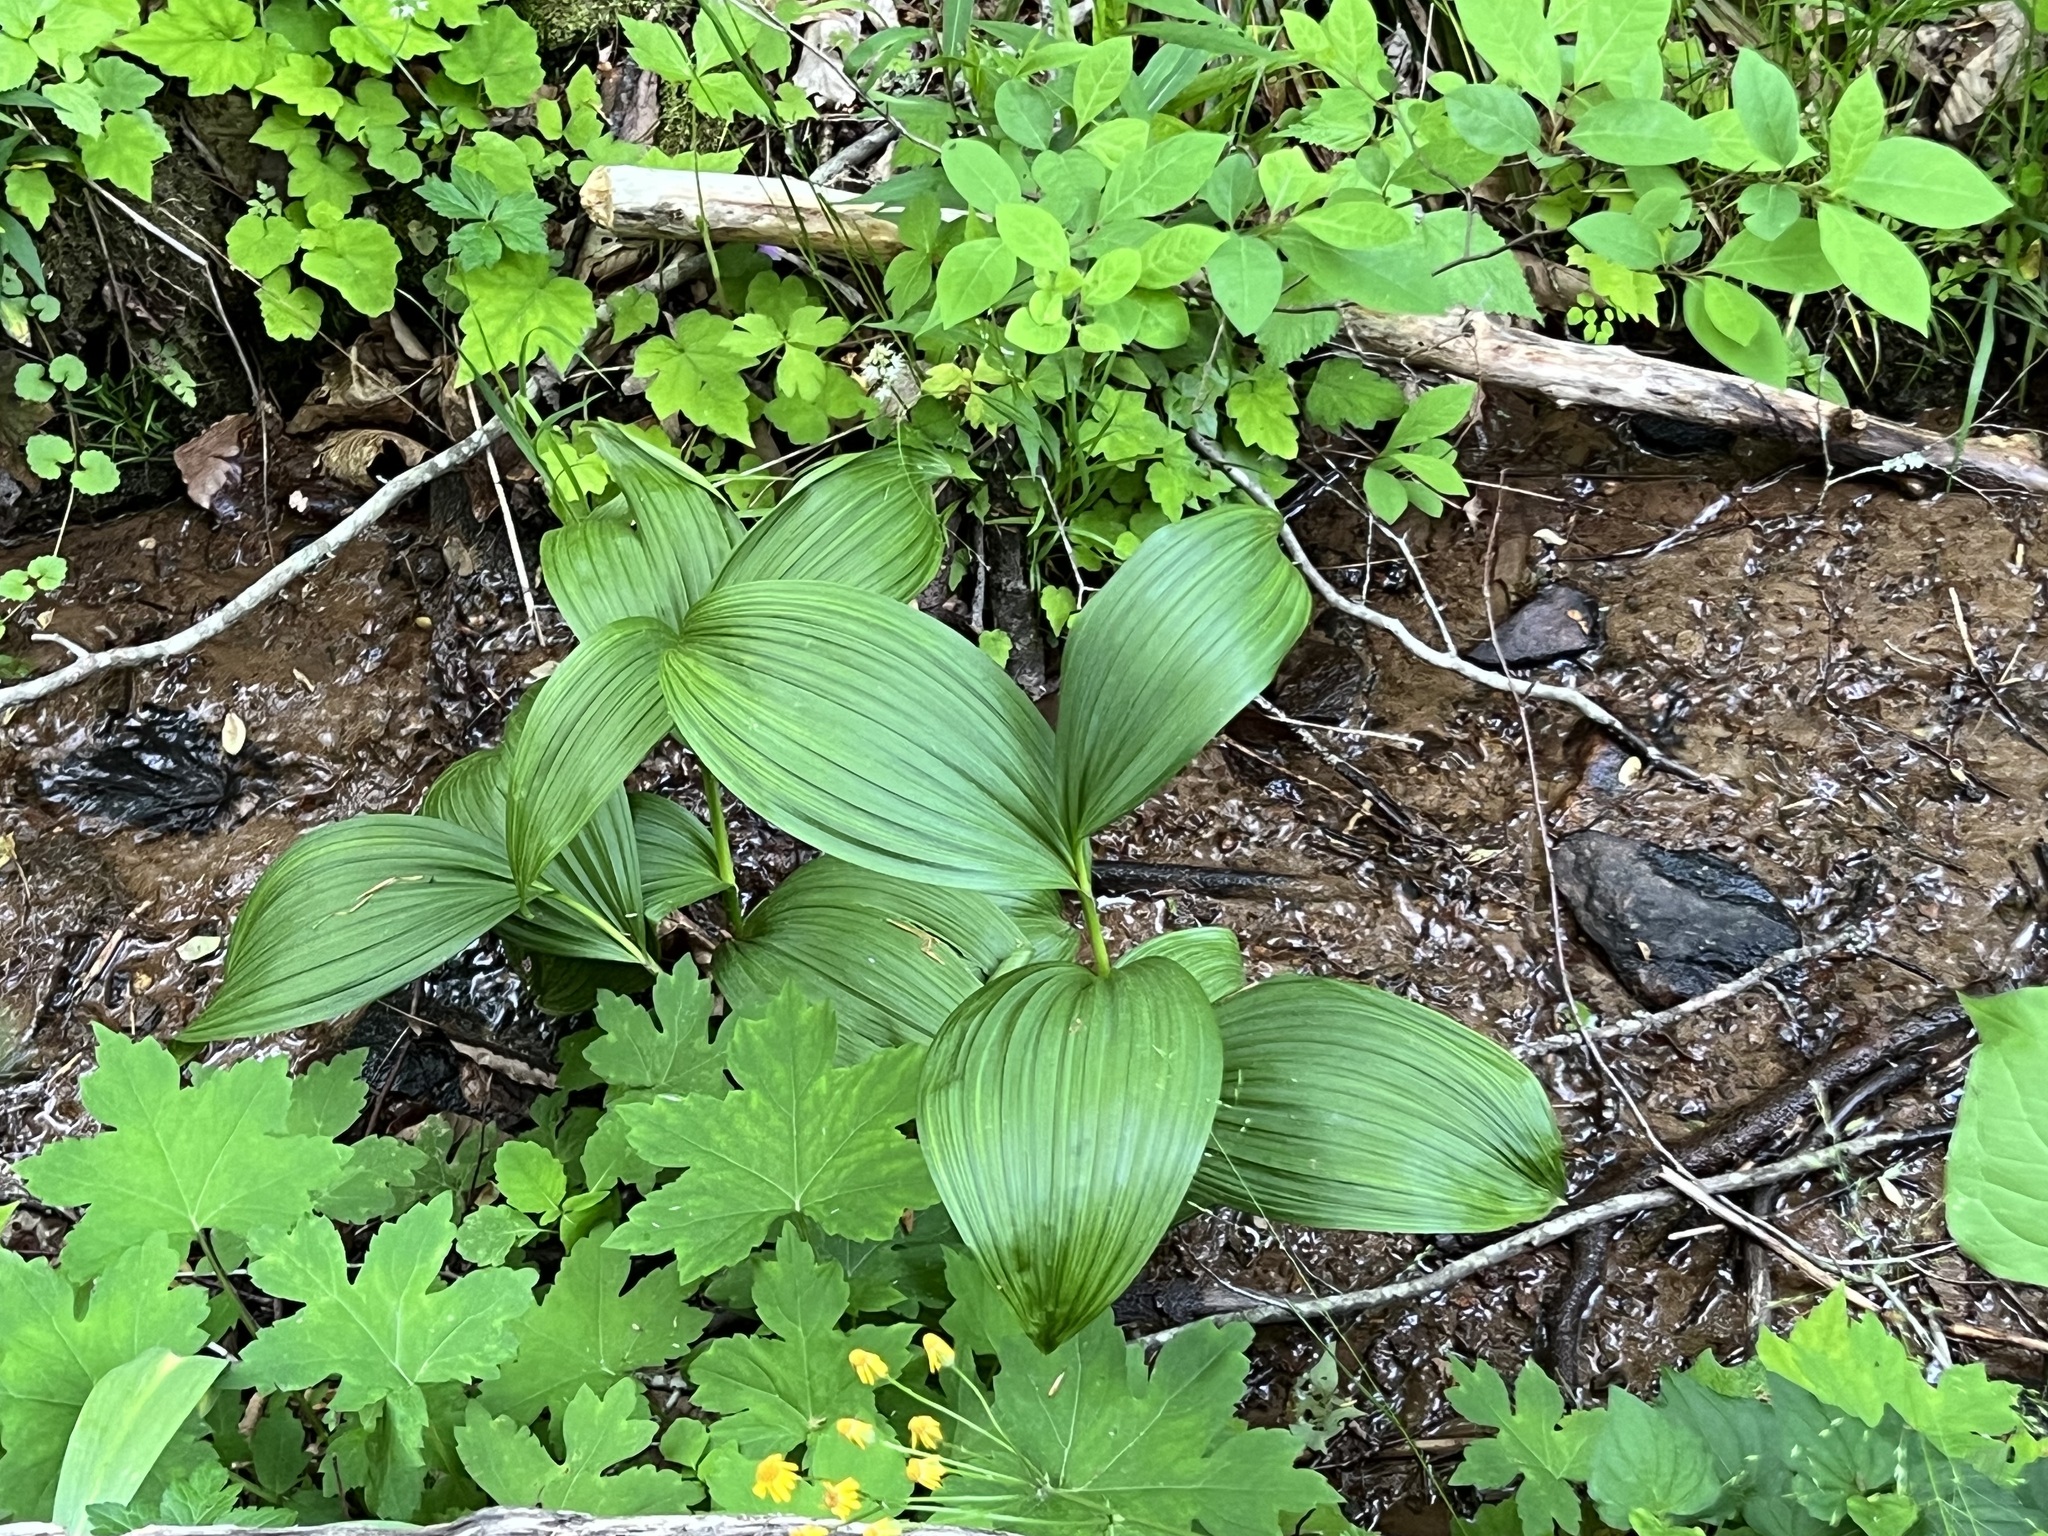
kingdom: Plantae
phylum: Tracheophyta
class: Liliopsida
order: Liliales
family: Melanthiaceae
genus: Veratrum
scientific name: Veratrum viride
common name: American false hellebore
